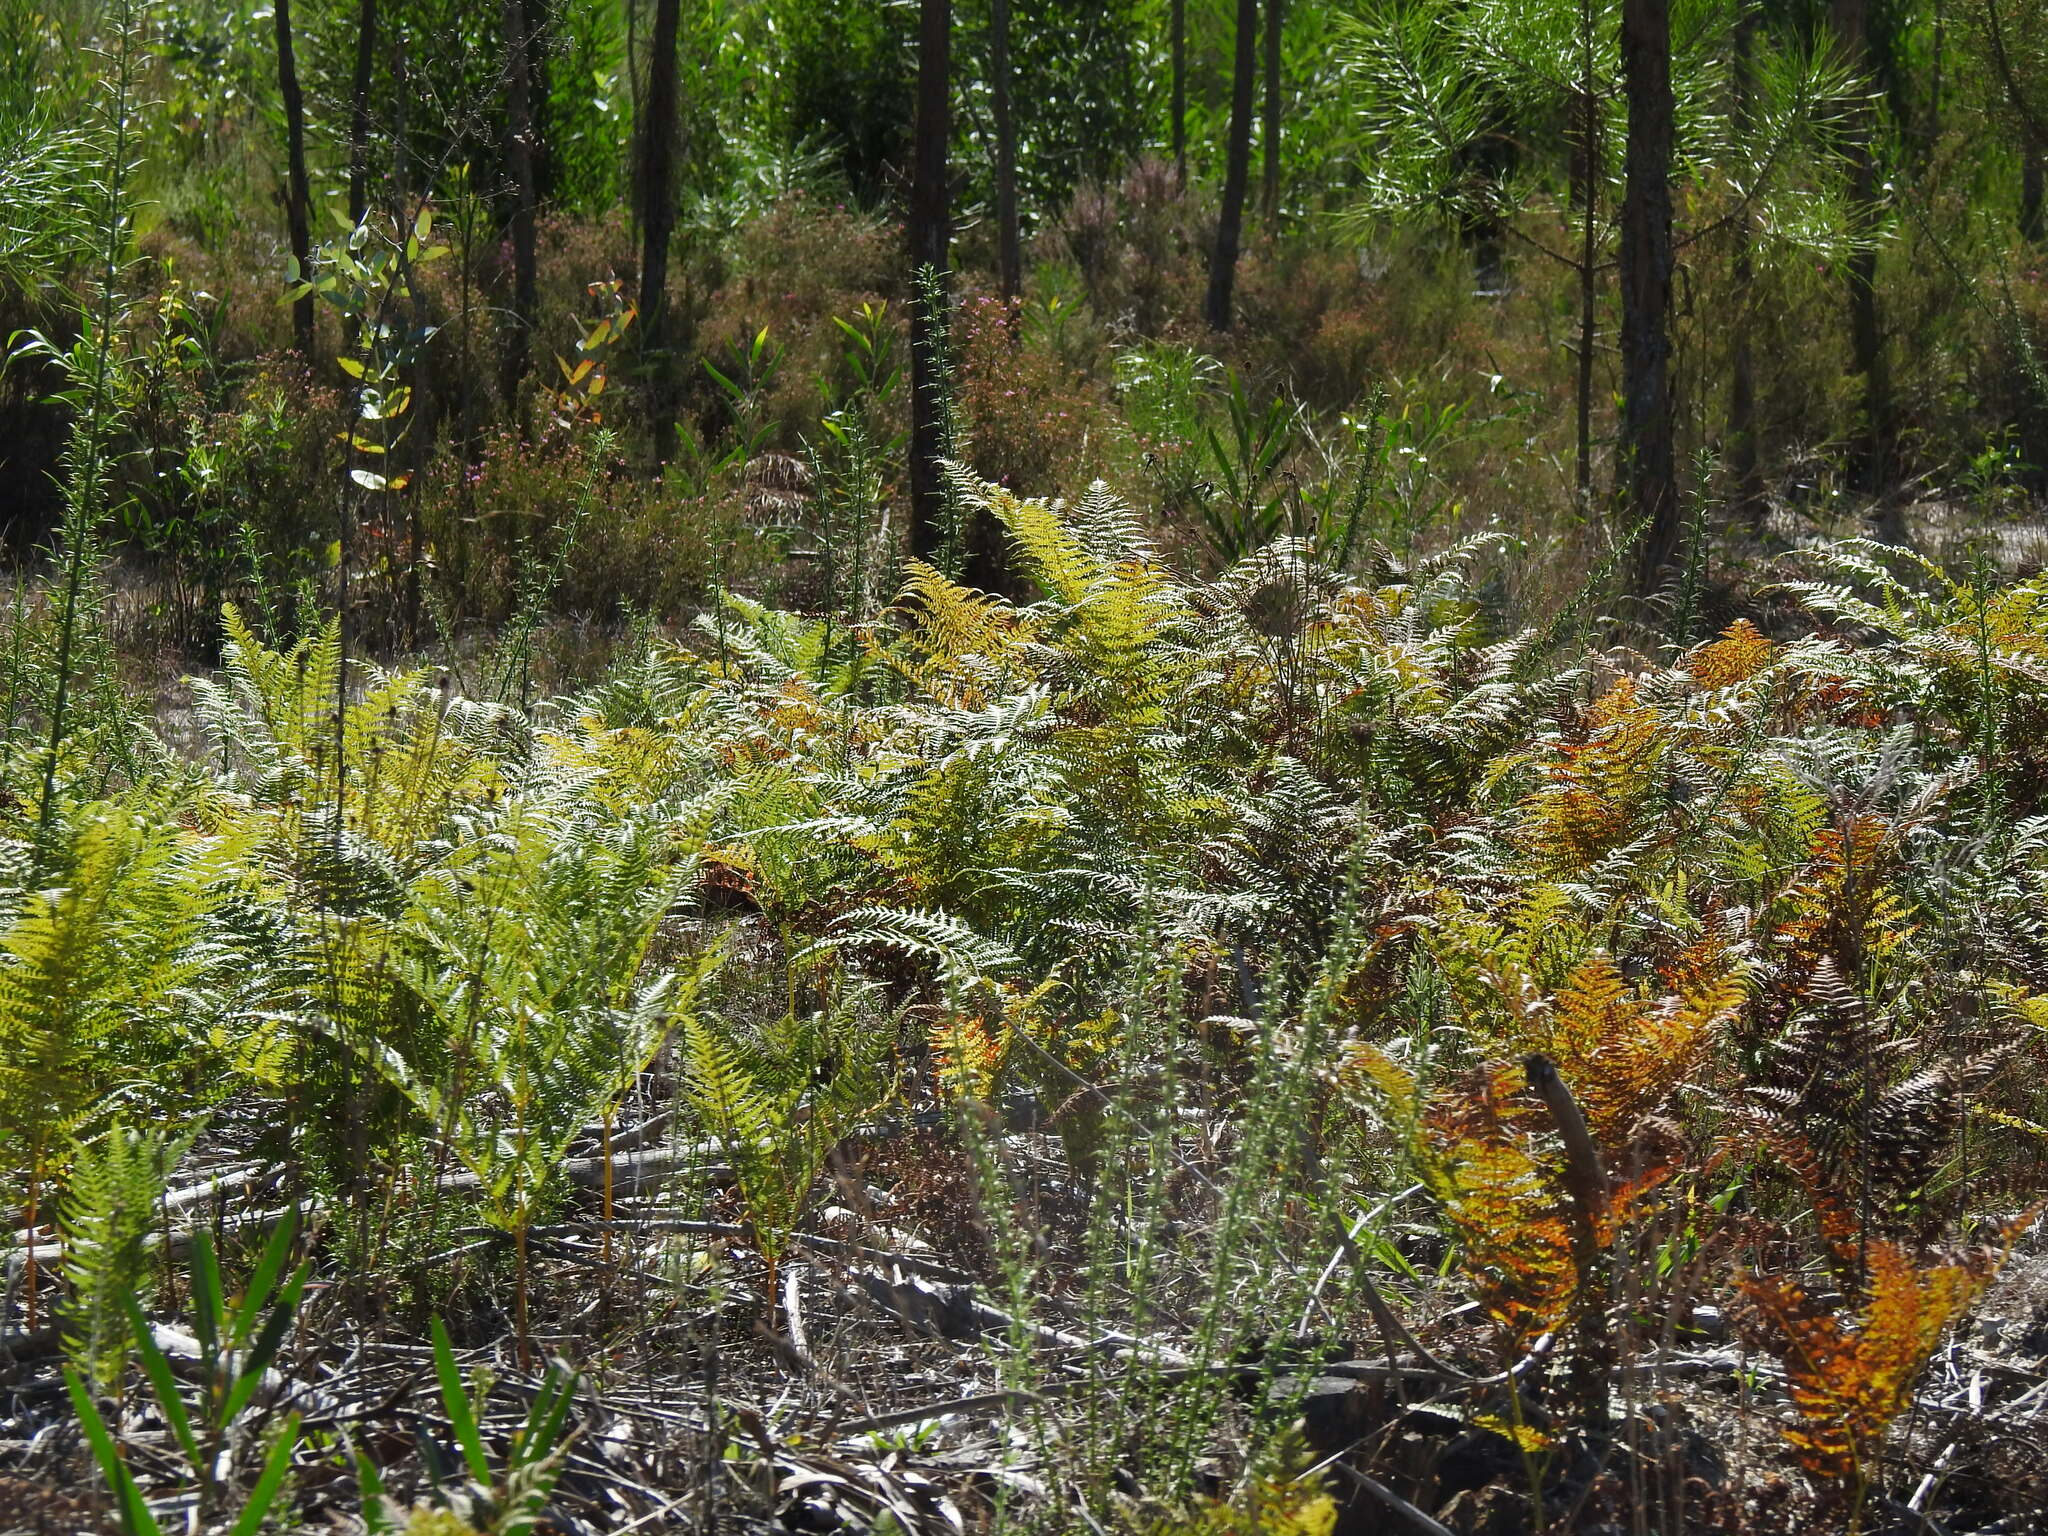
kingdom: Plantae
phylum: Tracheophyta
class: Polypodiopsida
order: Polypodiales
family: Dennstaedtiaceae
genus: Pteridium
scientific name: Pteridium aquilinum
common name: Bracken
